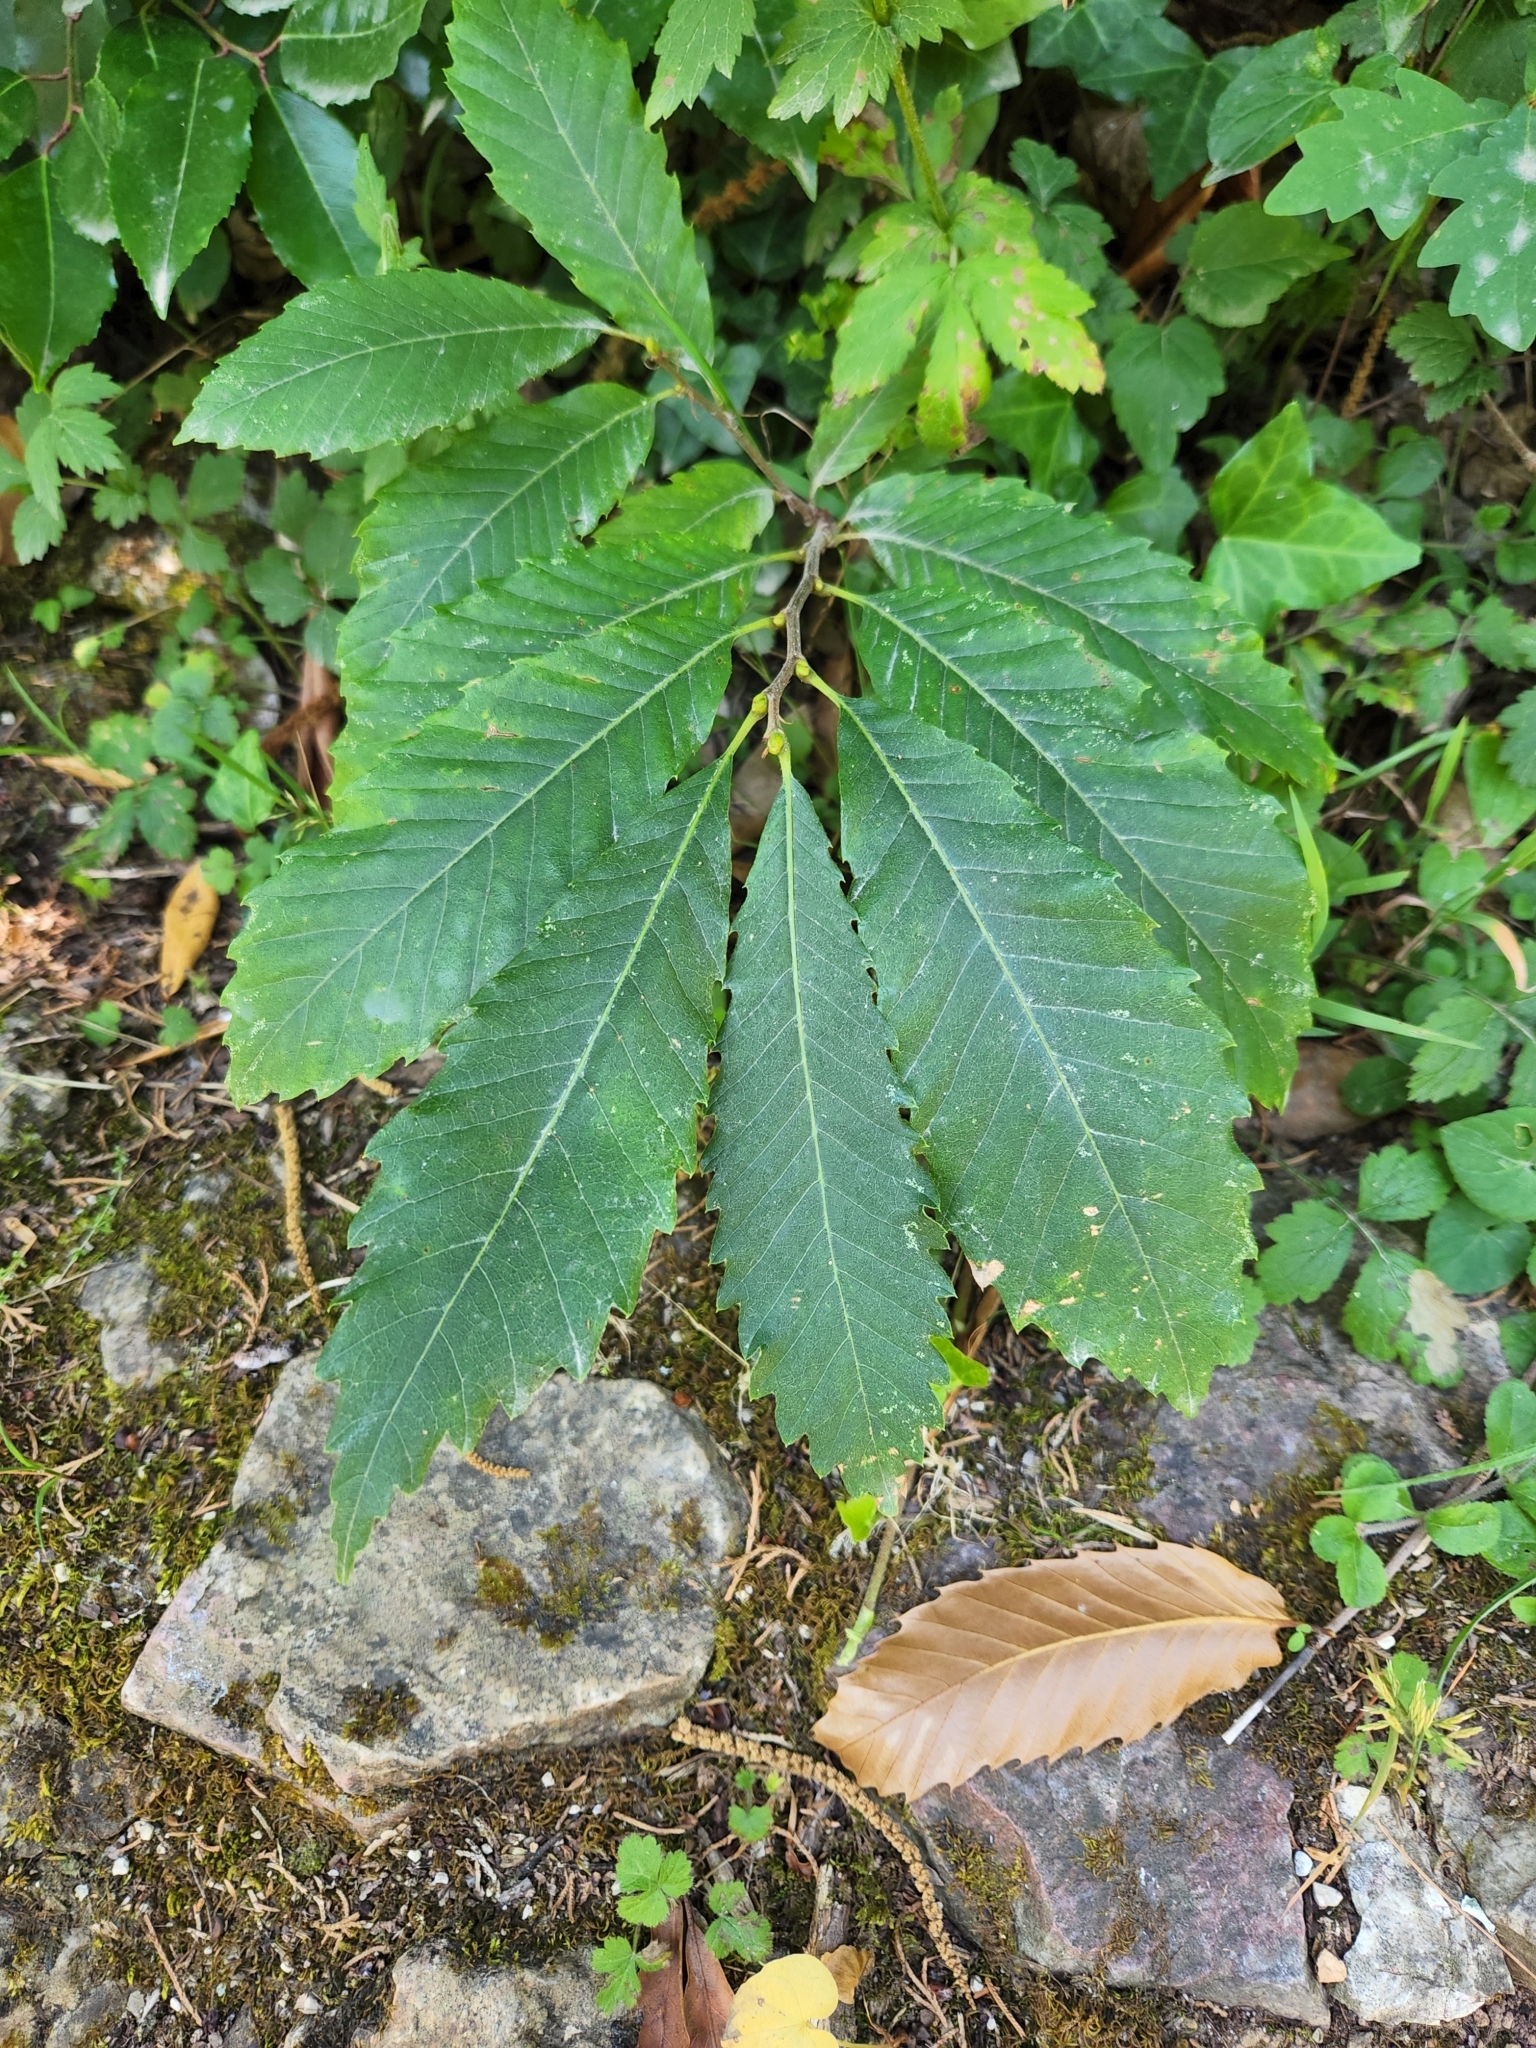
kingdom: Plantae
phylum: Tracheophyta
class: Magnoliopsida
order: Fagales
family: Fagaceae
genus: Castanea
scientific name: Castanea sativa
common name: Sweet chestnut
